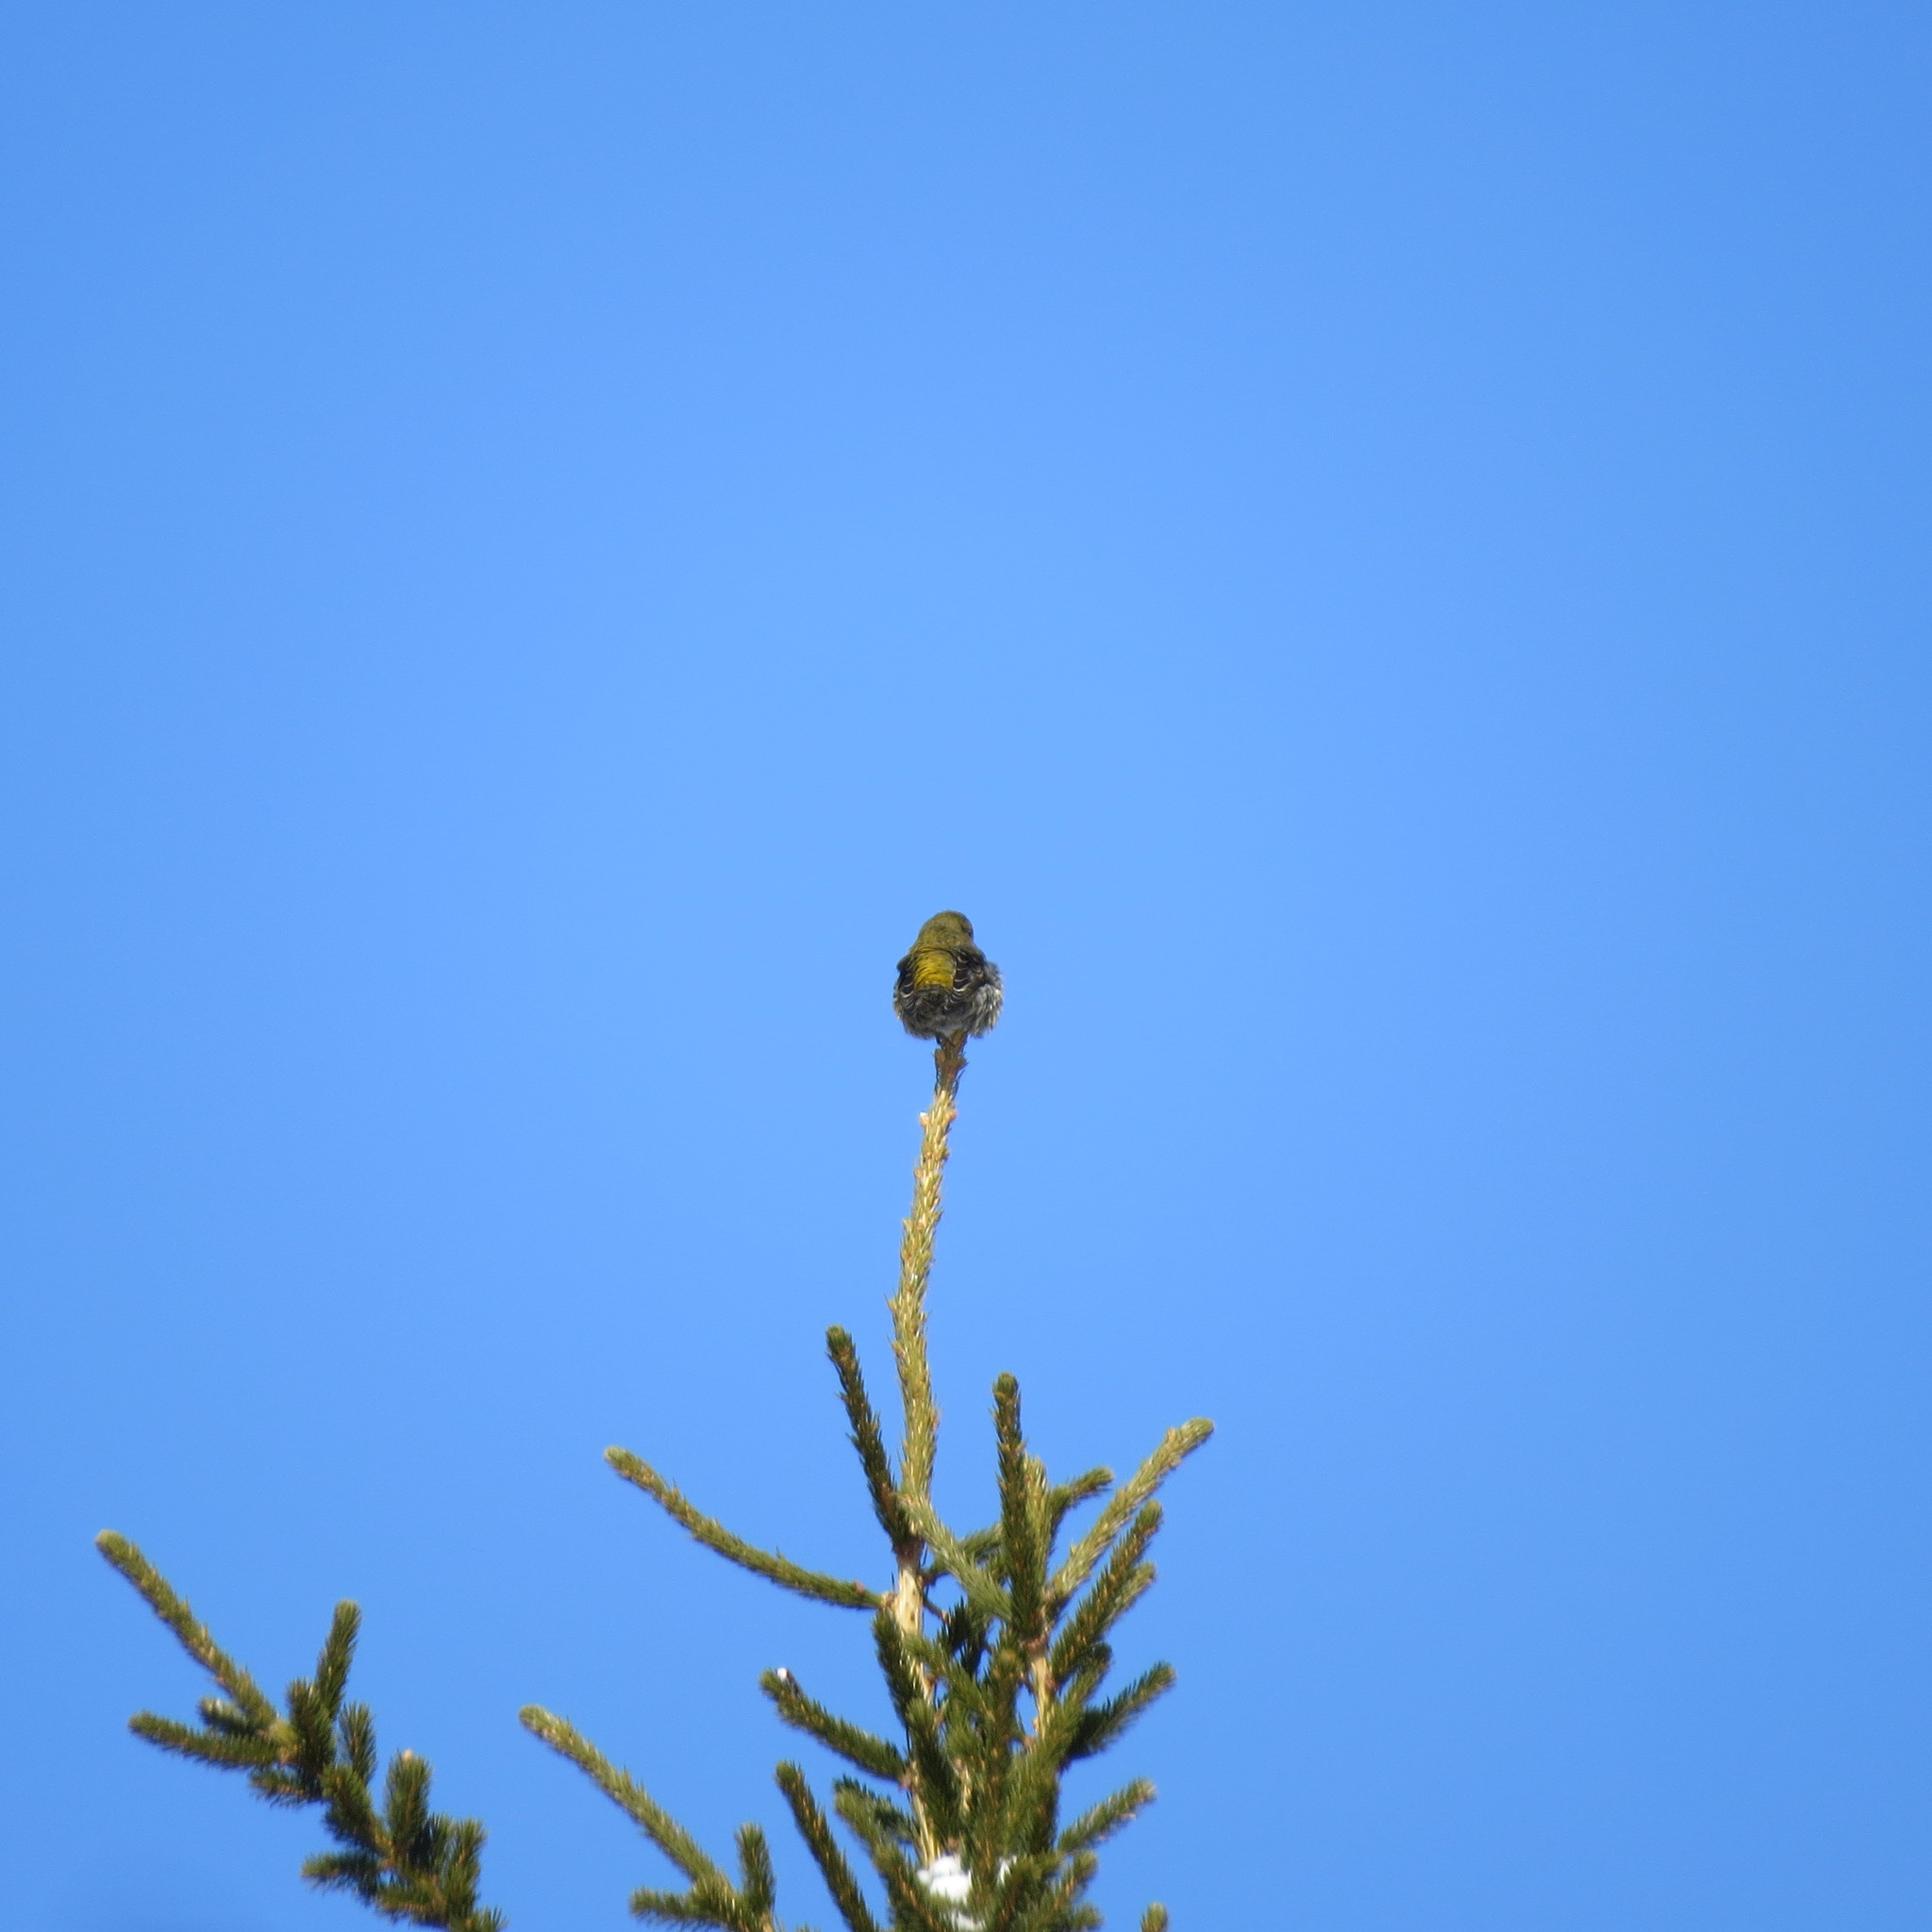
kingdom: Animalia
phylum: Chordata
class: Aves
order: Passeriformes
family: Fringillidae
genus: Loxia
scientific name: Loxia curvirostra
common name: Red crossbill
